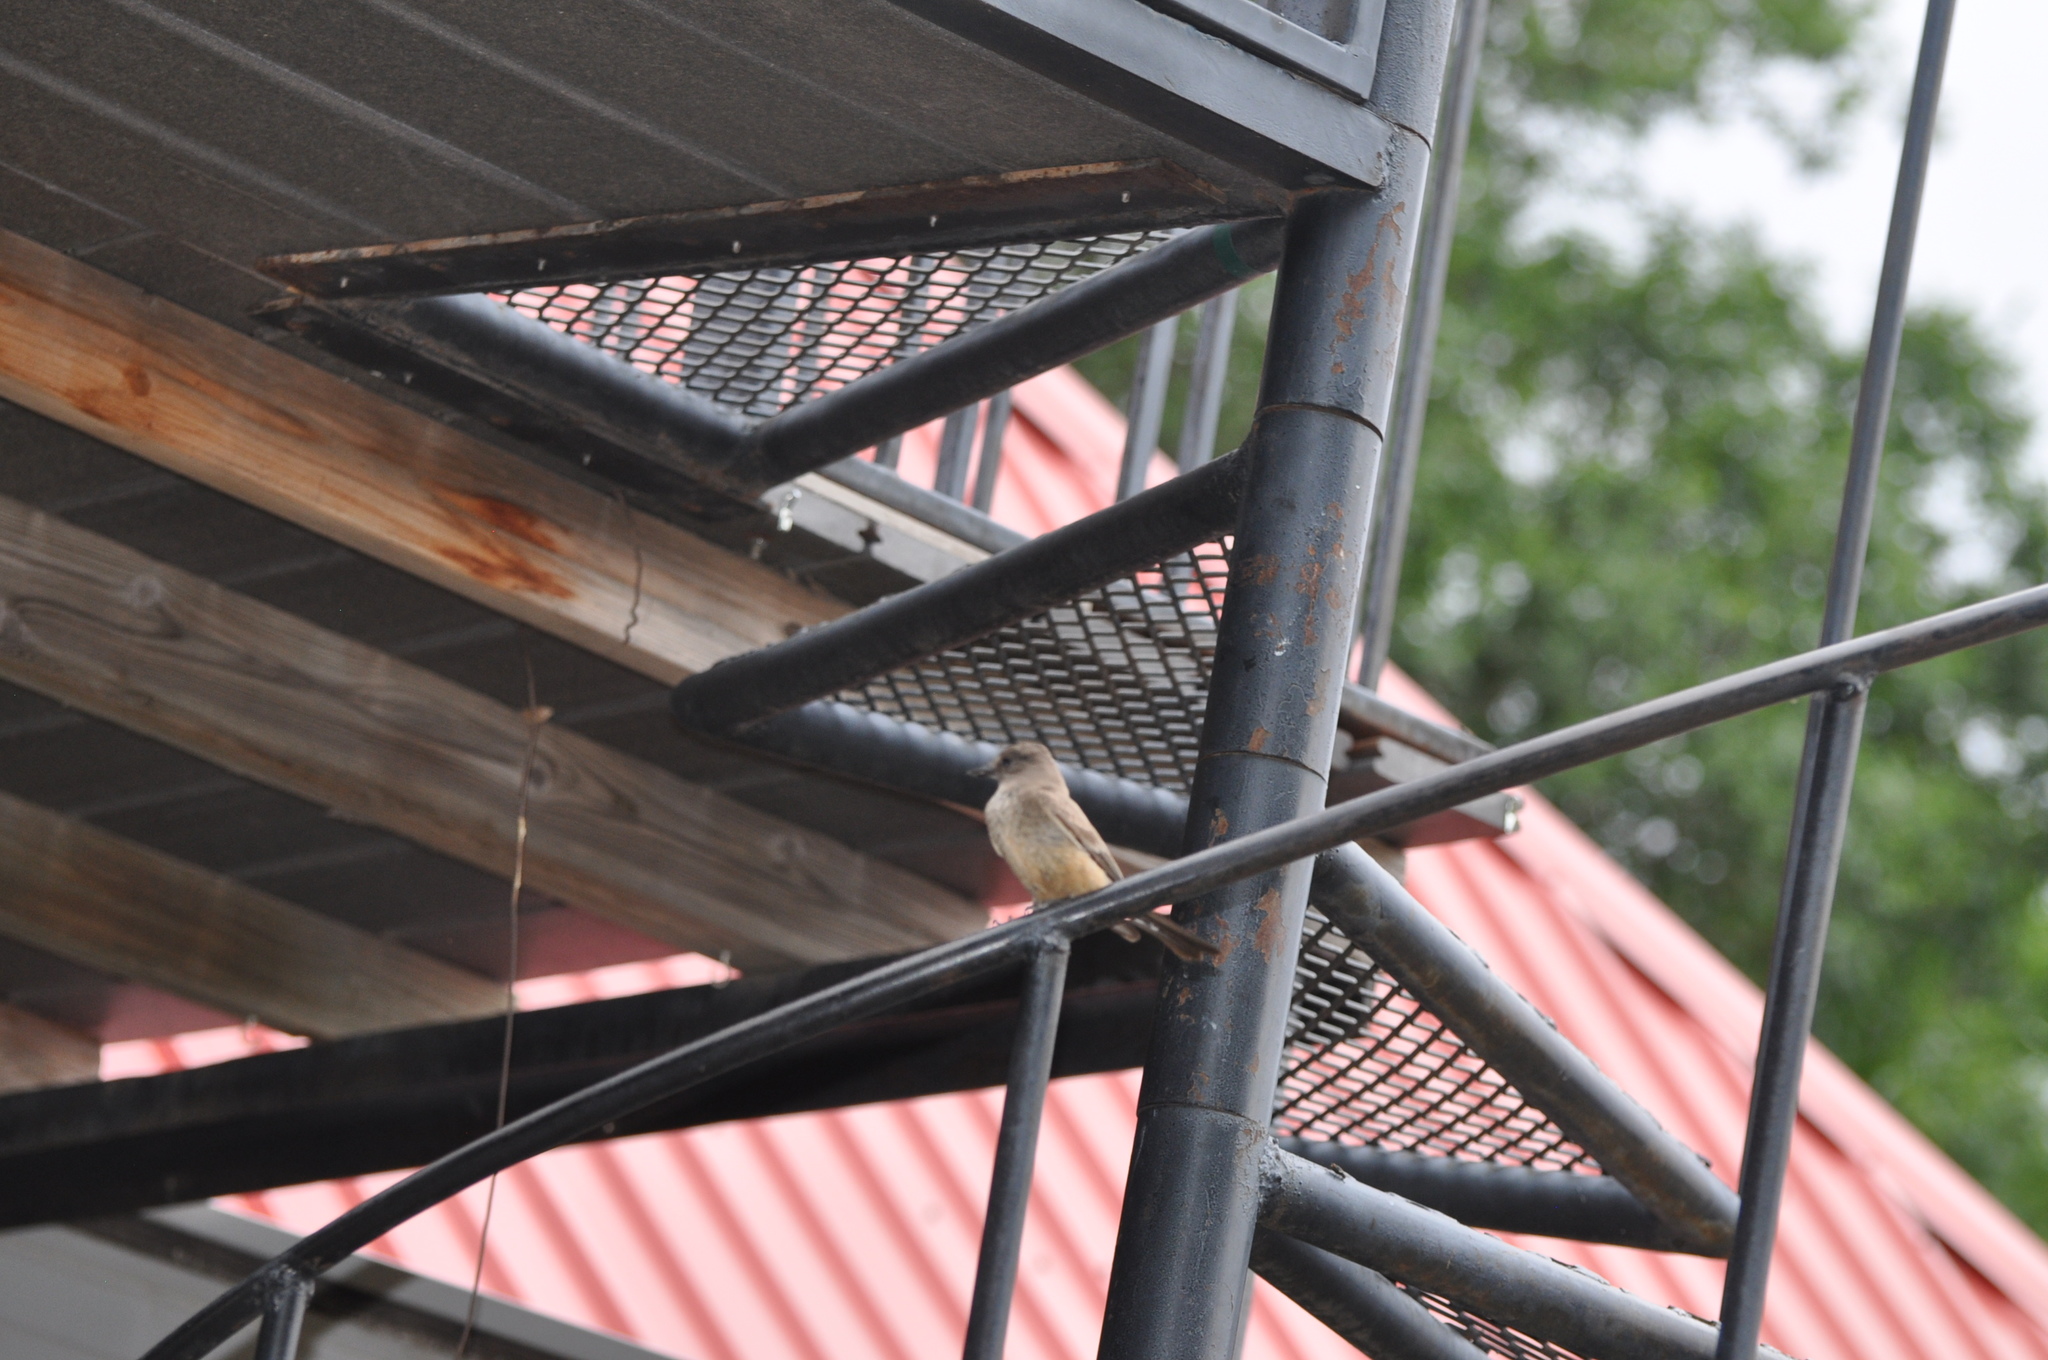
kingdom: Animalia
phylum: Chordata
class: Aves
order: Passeriformes
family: Tyrannidae
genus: Sayornis
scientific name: Sayornis saya
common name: Say's phoebe
